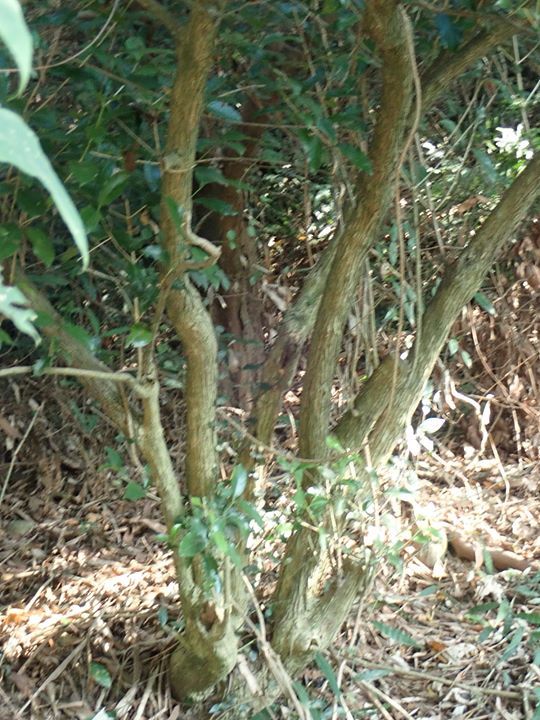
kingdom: Plantae
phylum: Tracheophyta
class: Magnoliopsida
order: Gentianales
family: Rubiaceae
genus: Diplospora
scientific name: Diplospora dubia
